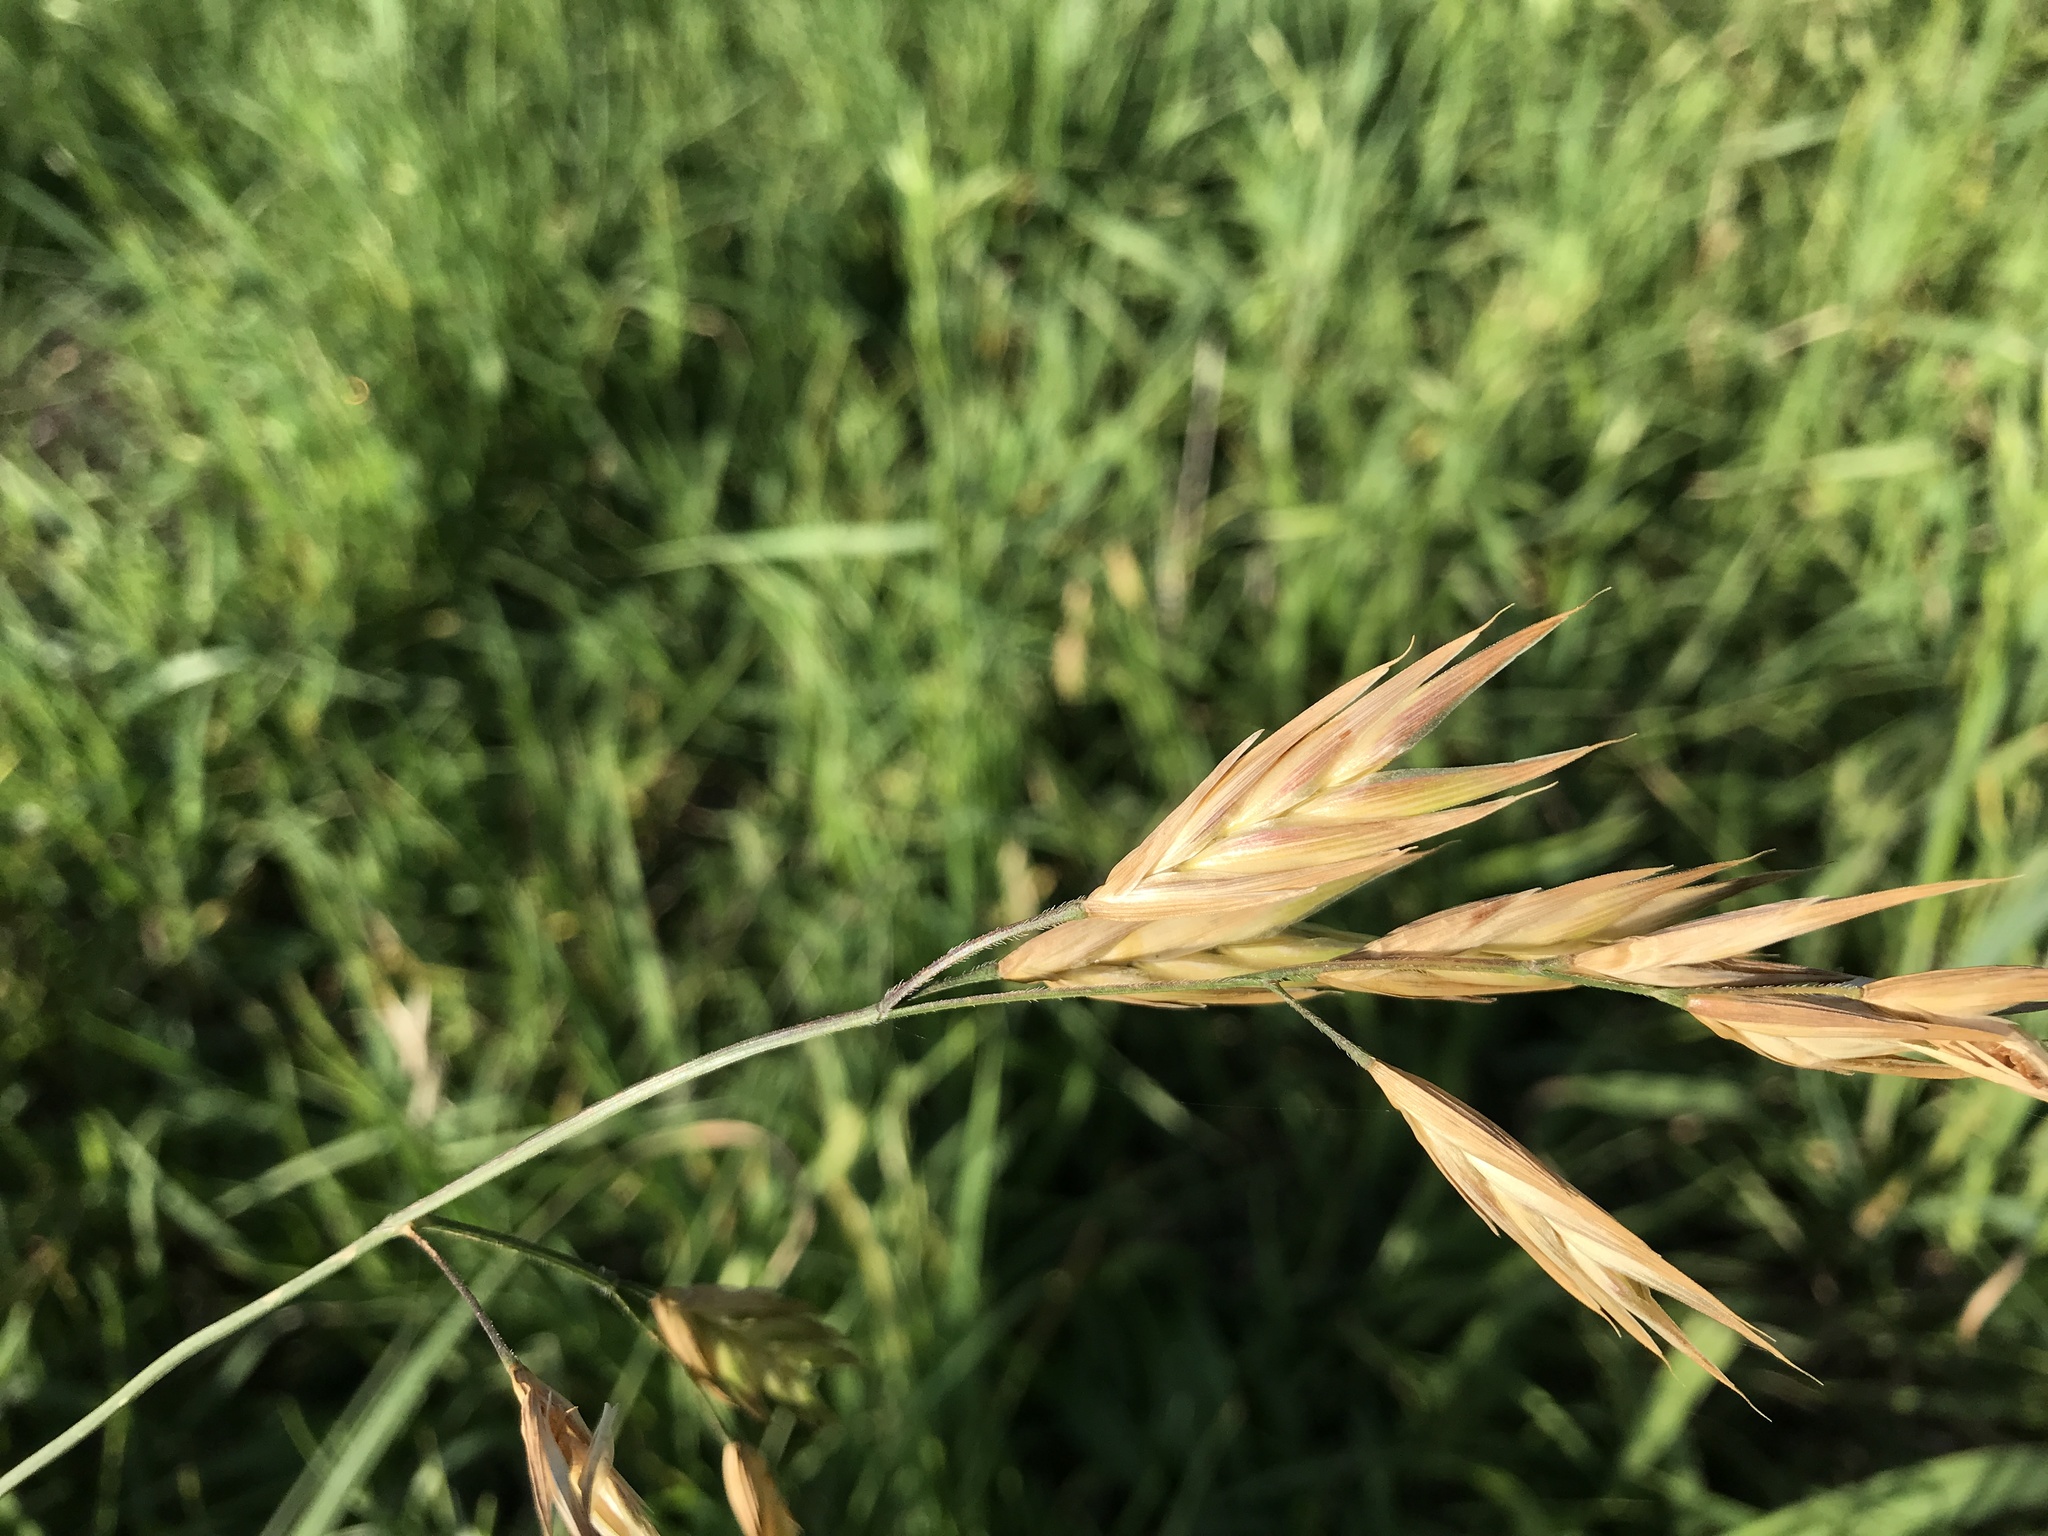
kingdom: Plantae
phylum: Tracheophyta
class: Liliopsida
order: Poales
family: Poaceae
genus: Bromus
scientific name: Bromus catharticus
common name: Rescuegrass
